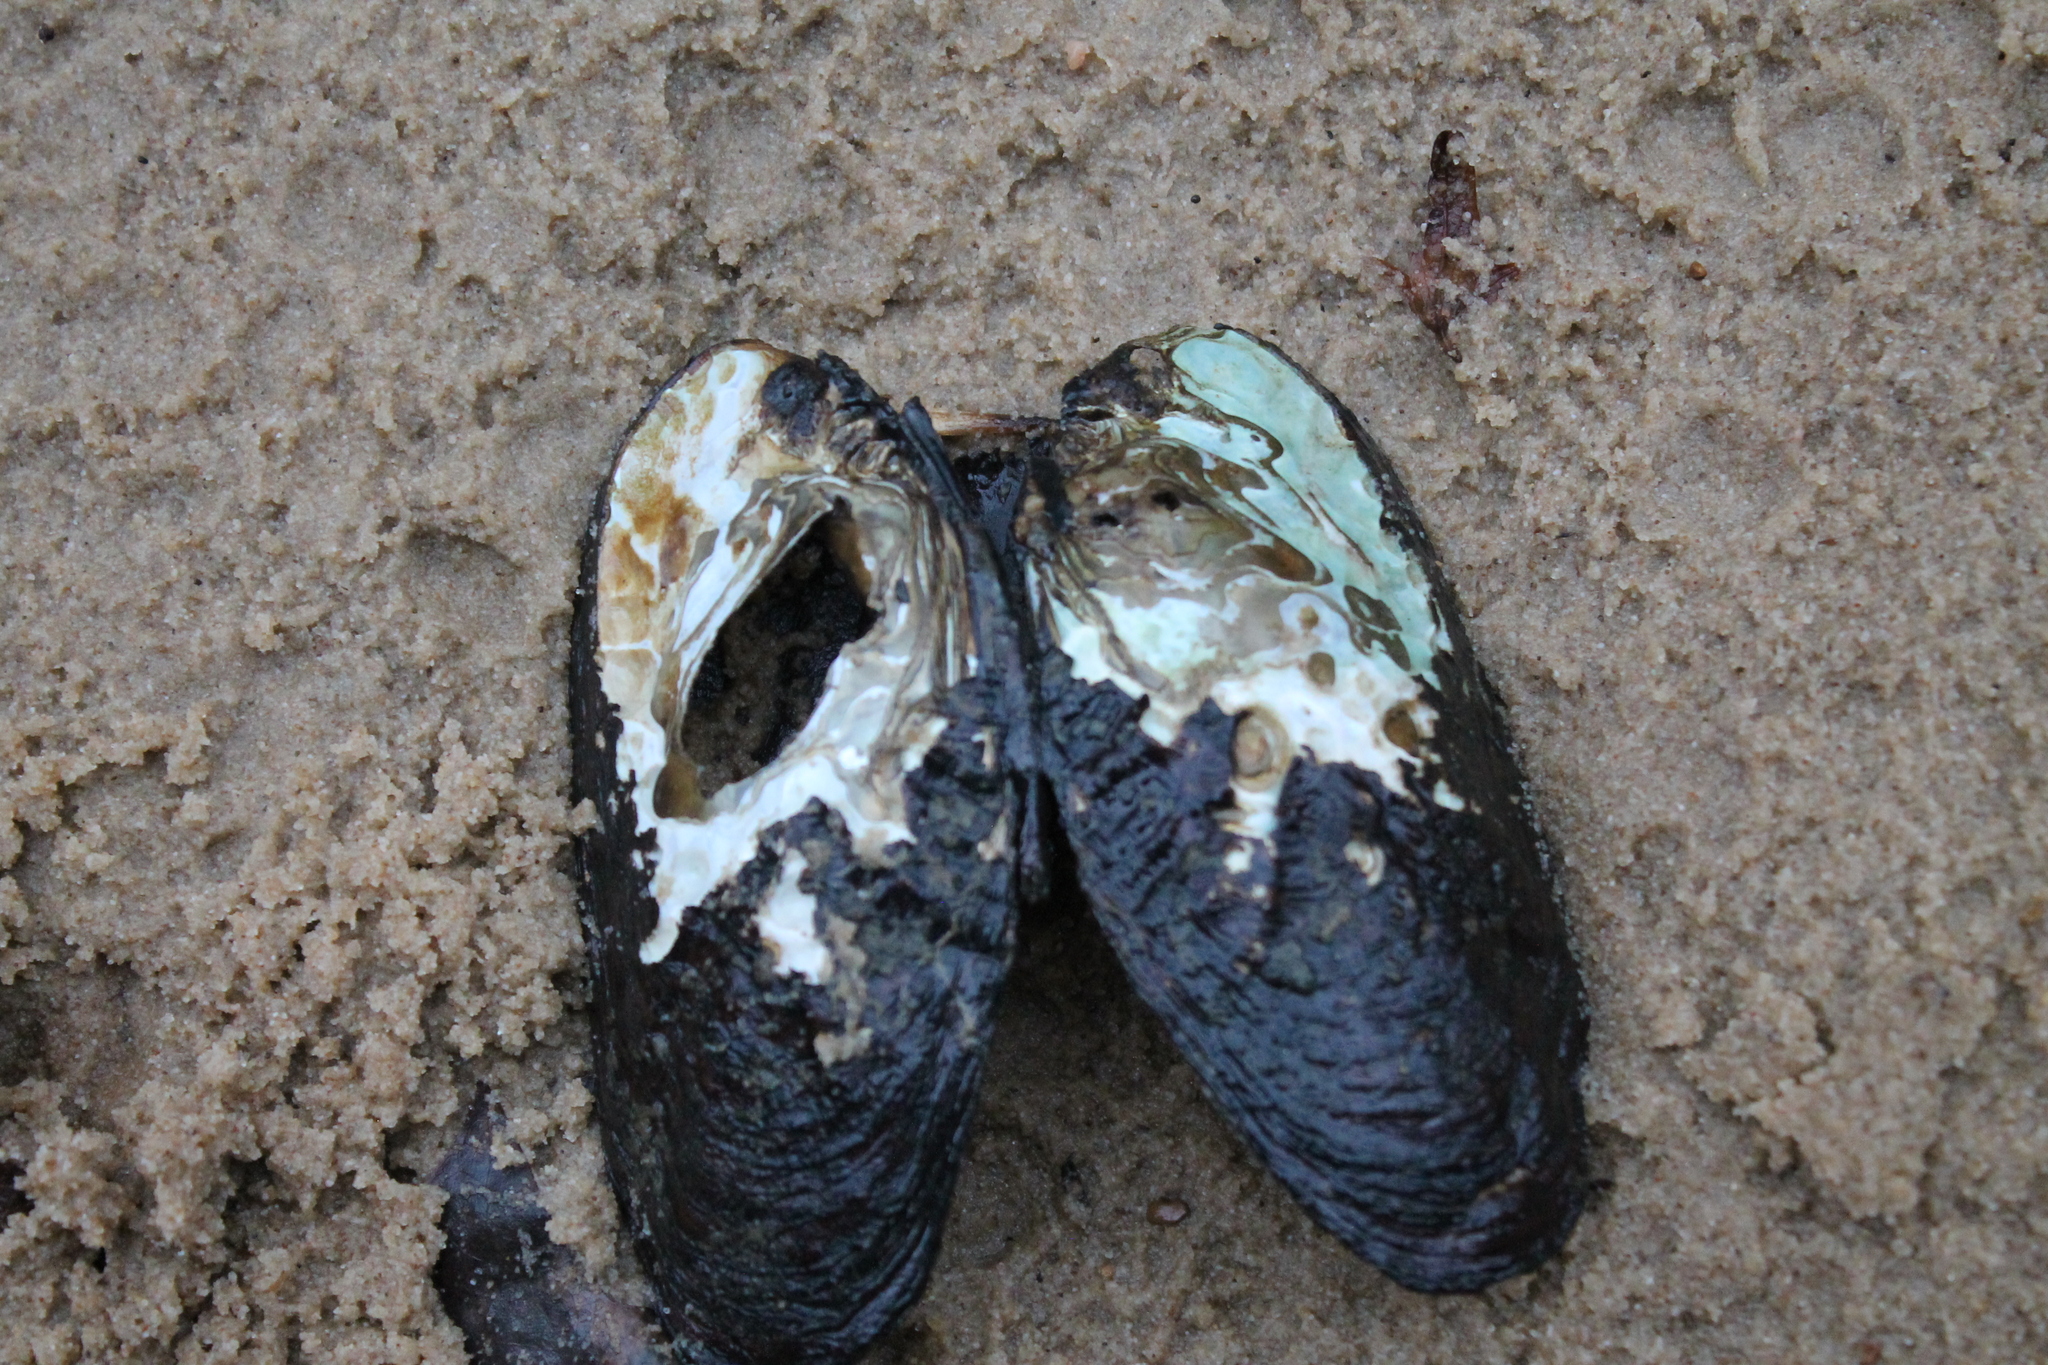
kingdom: Animalia
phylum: Mollusca
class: Bivalvia
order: Unionida
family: Unionidae
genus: Tritogonia
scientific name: Tritogonia verrucosa
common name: Pistolgrip
